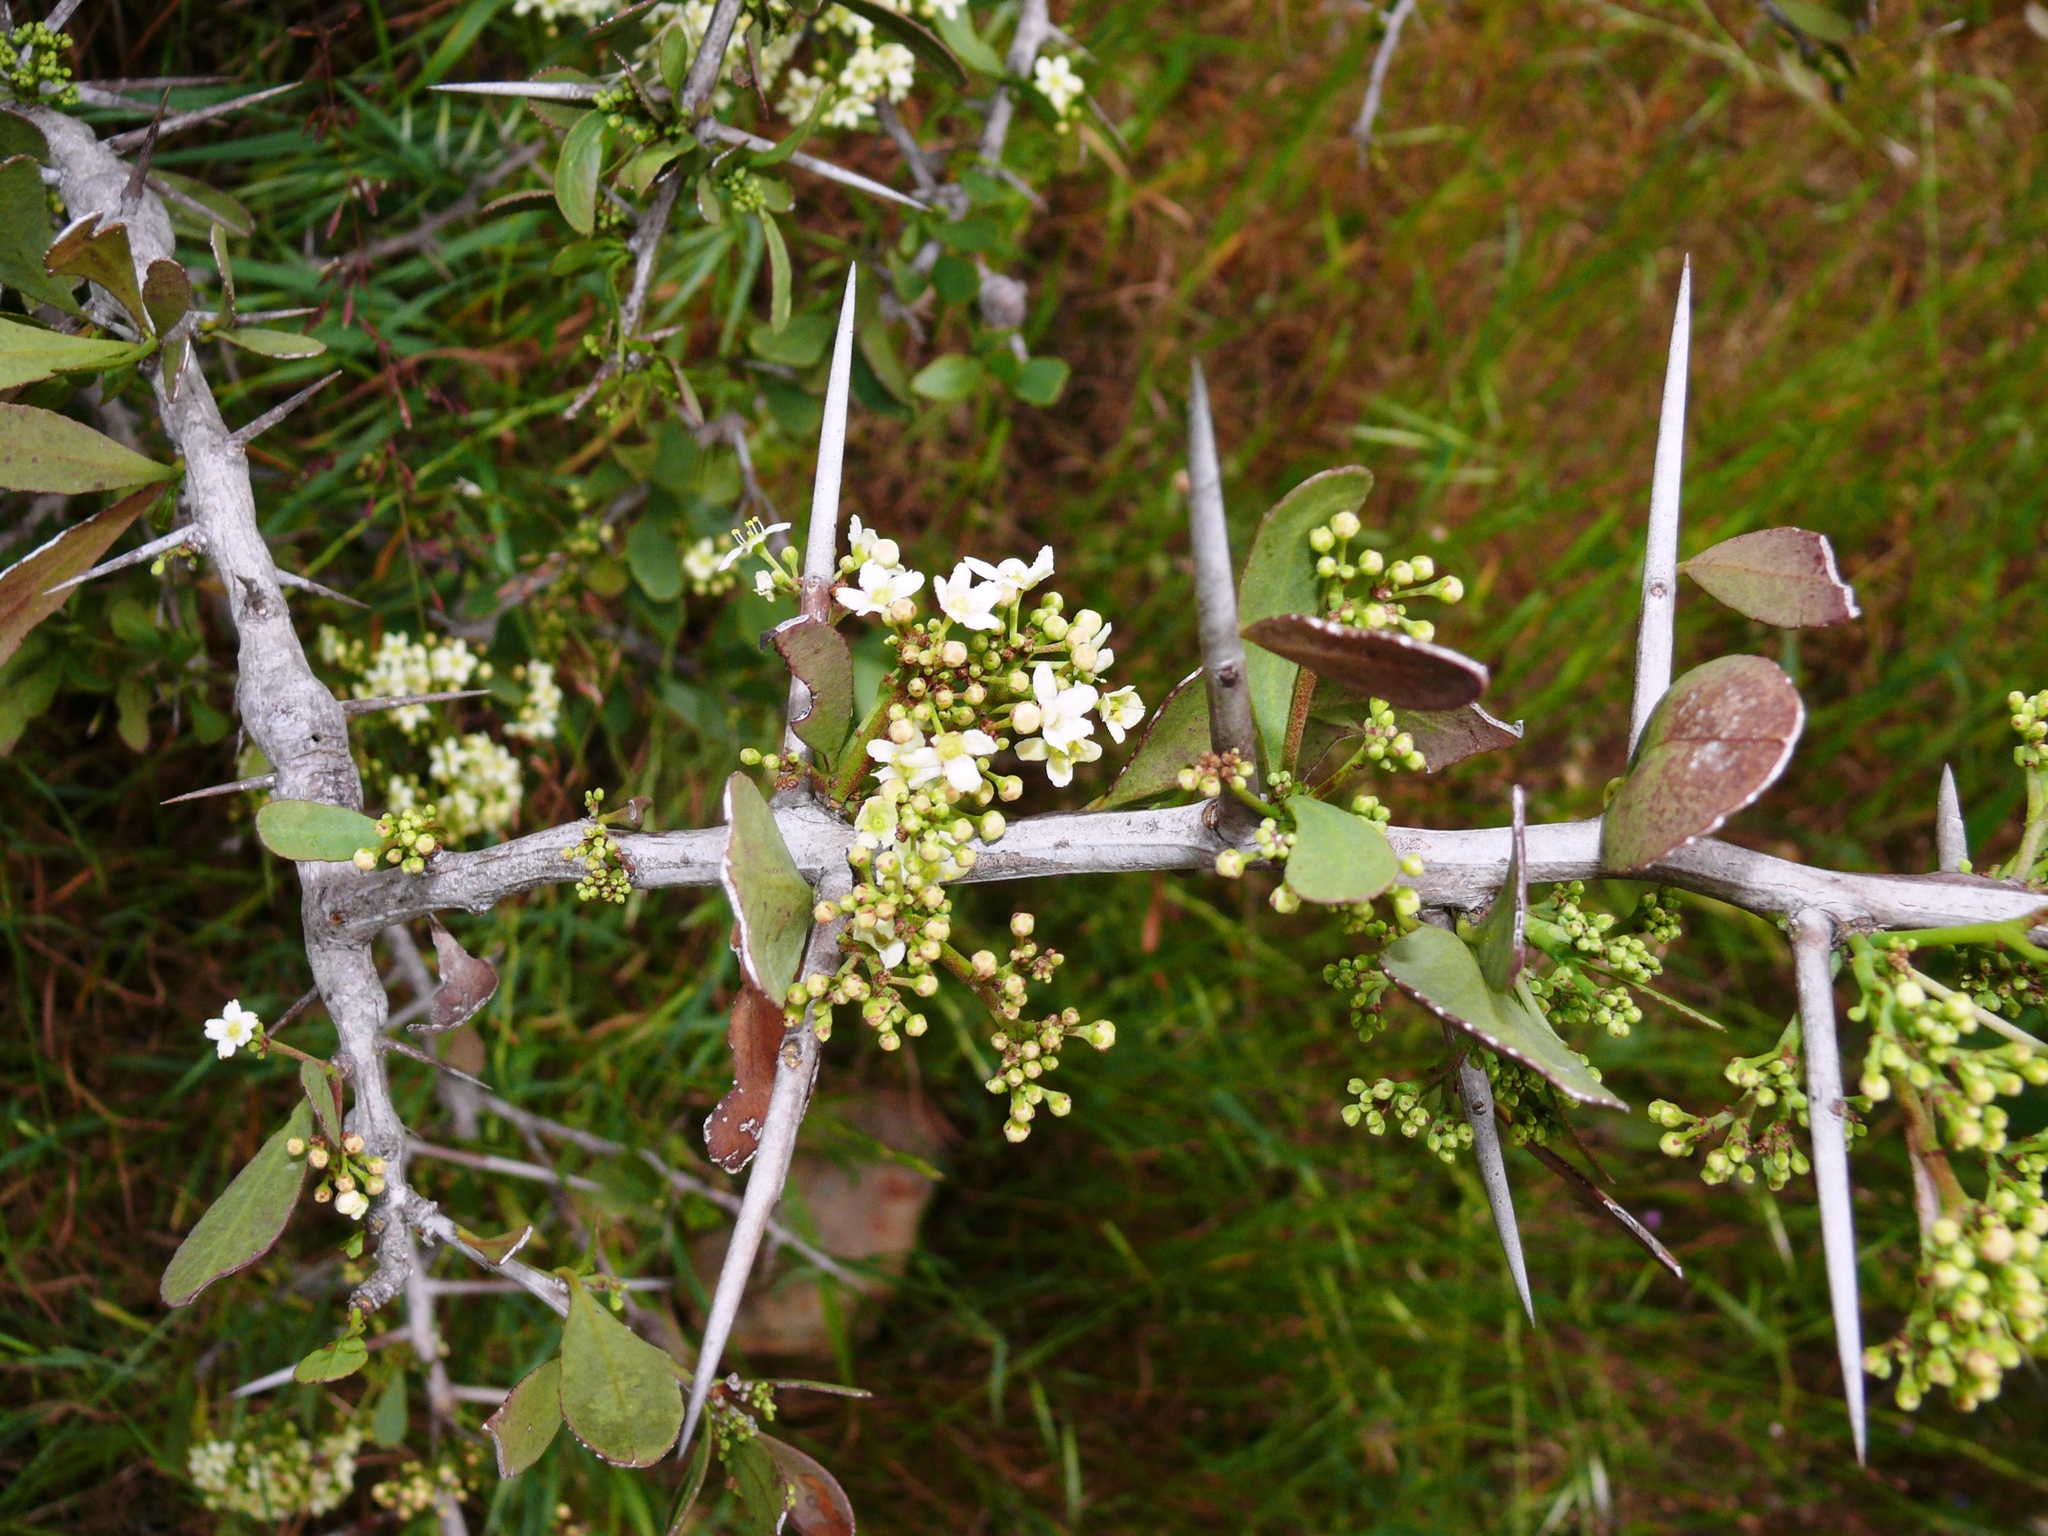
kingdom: Plantae
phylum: Tracheophyta
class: Magnoliopsida
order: Celastrales
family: Celastraceae
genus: Gymnosporia
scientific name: Gymnosporia buxifolia
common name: Common spike-thorn
